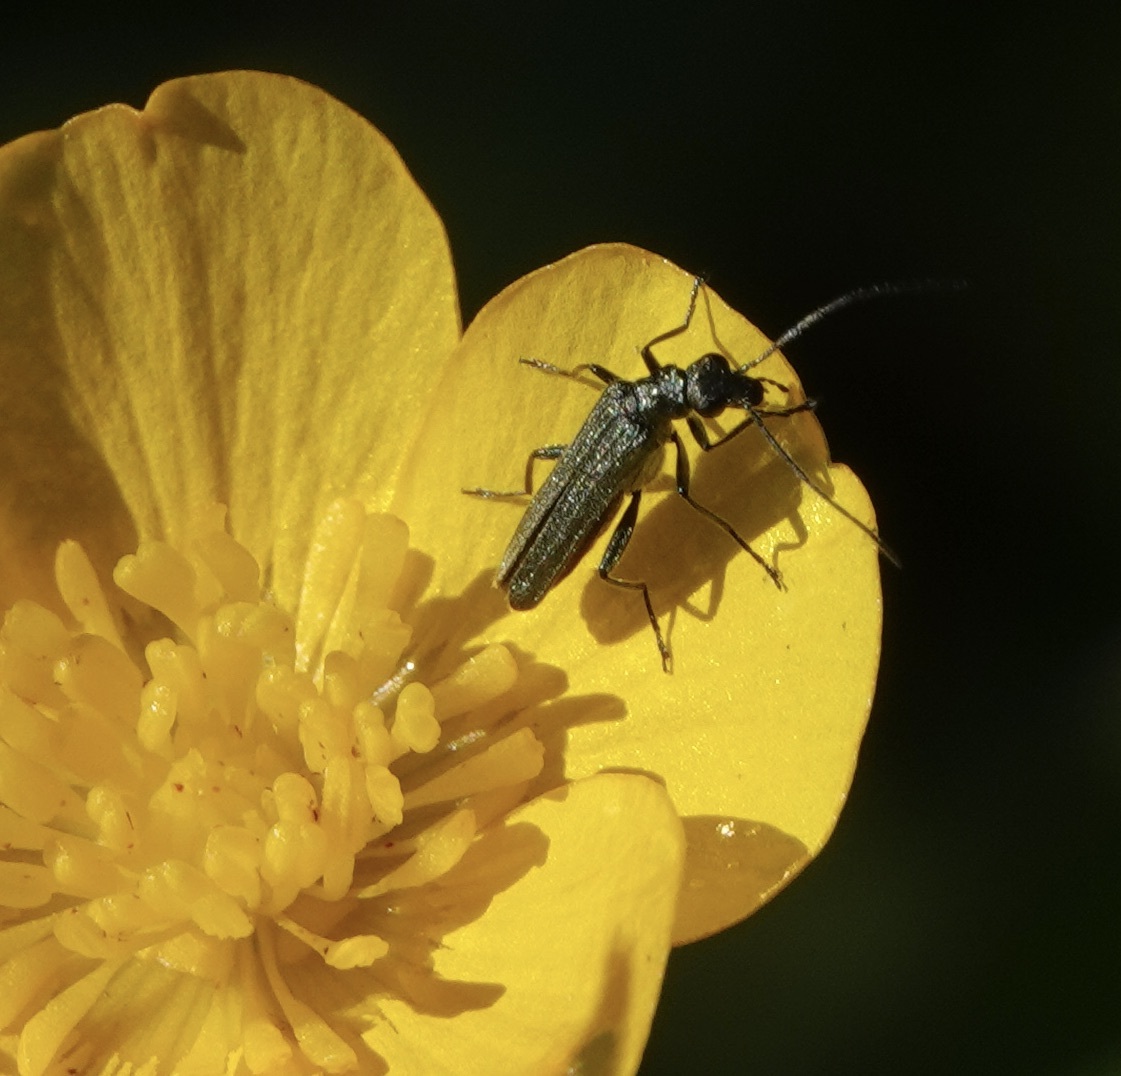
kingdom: Animalia
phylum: Arthropoda
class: Insecta
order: Coleoptera
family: Oedemeridae
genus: Oedemera
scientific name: Oedemera lurida
